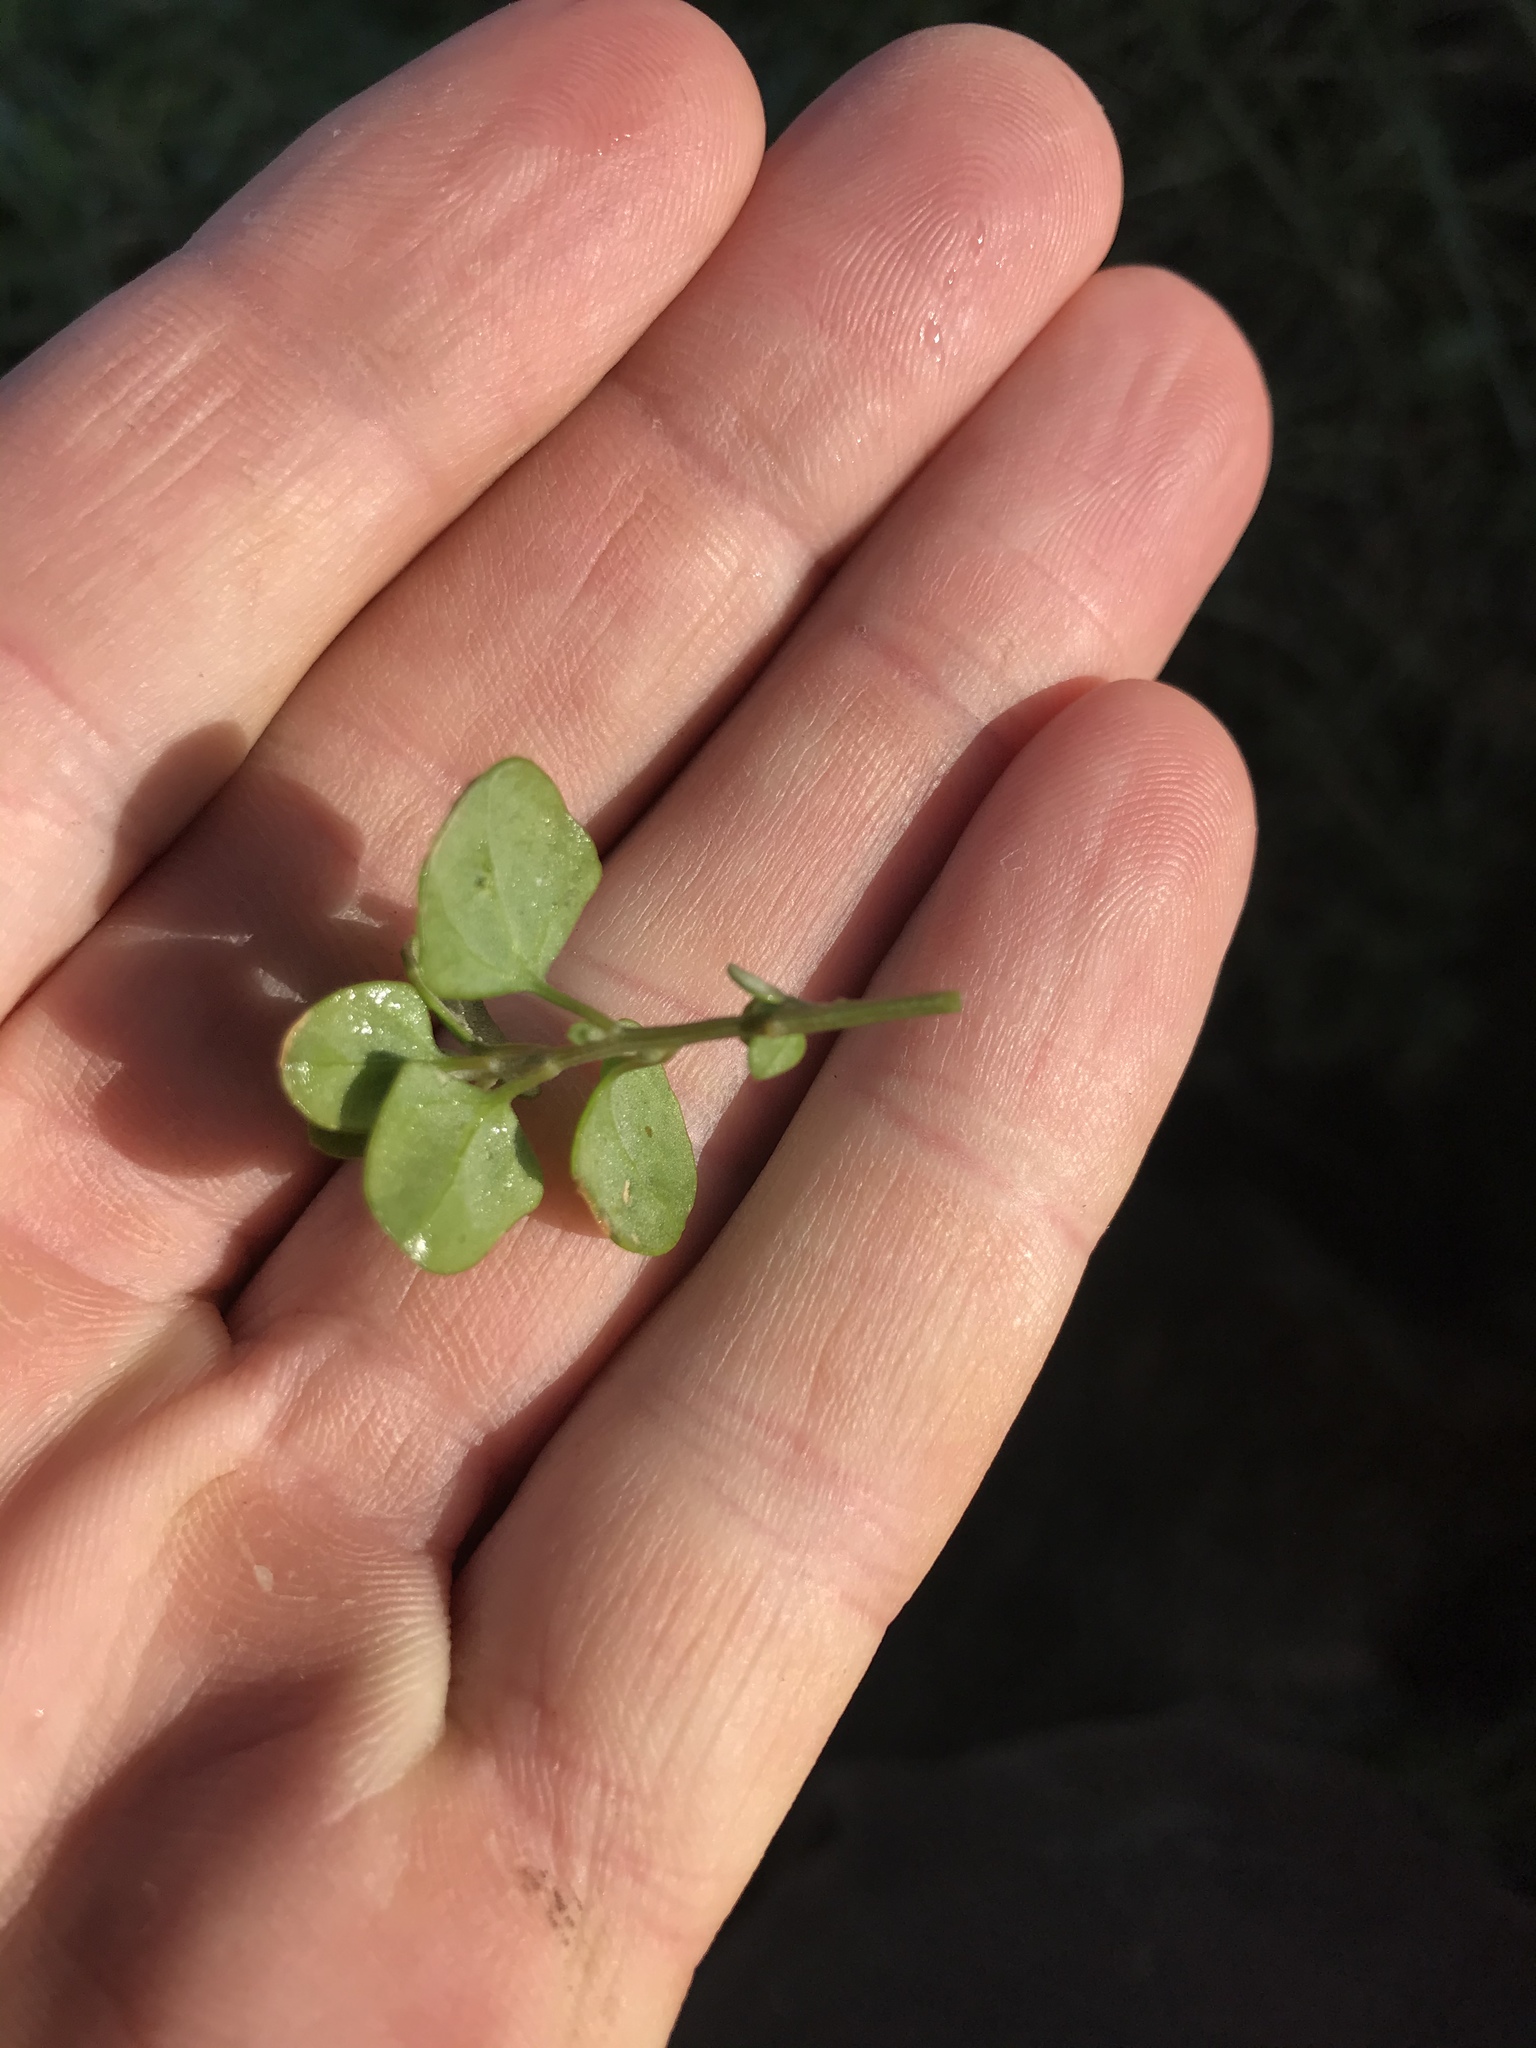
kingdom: Plantae
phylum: Tracheophyta
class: Magnoliopsida
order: Caryophyllales
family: Amaranthaceae
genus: Chenopodium
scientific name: Chenopodium trigonon
